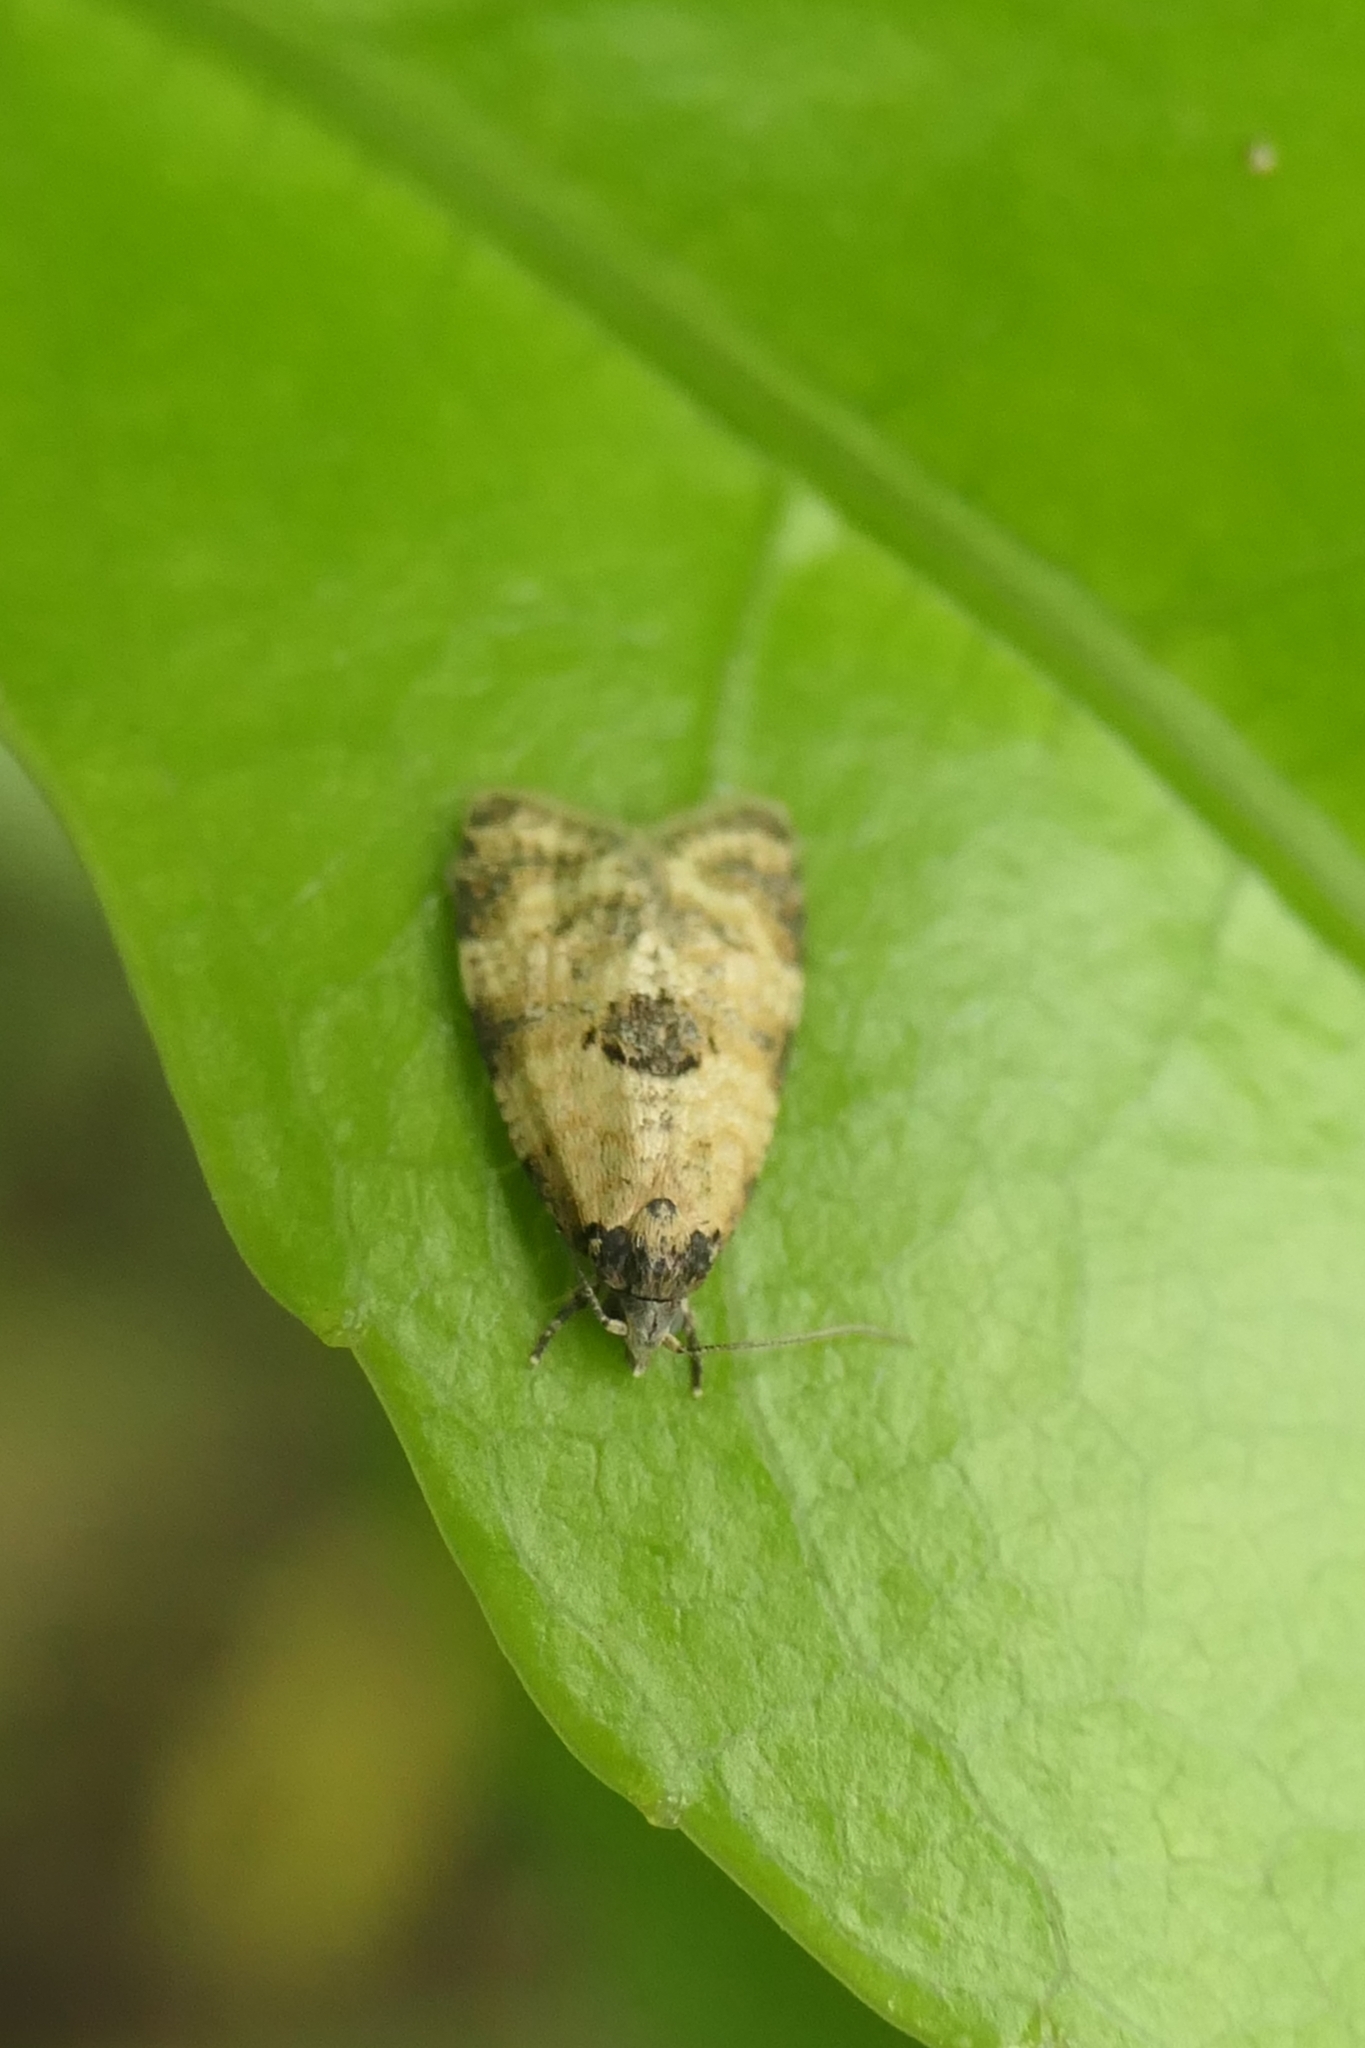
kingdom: Animalia
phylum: Arthropoda
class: Insecta
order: Lepidoptera
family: Tortricidae
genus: Dipterina
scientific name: Dipterina imbriferana
